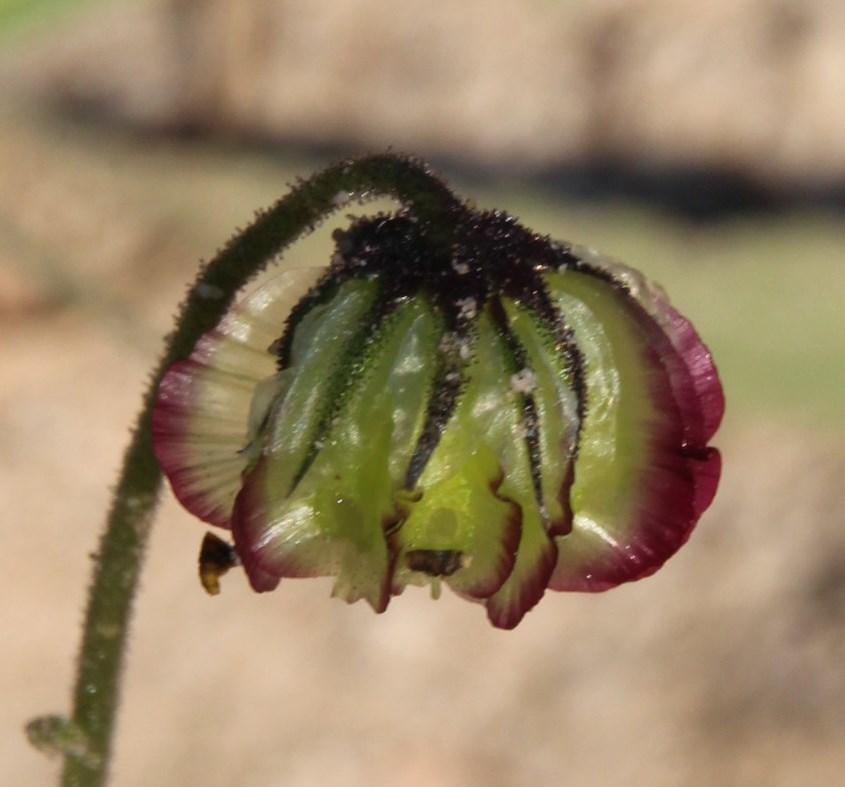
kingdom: Plantae
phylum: Tracheophyta
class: Magnoliopsida
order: Asterales
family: Asteraceae
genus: Osteospermum
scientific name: Osteospermum monstrosum
